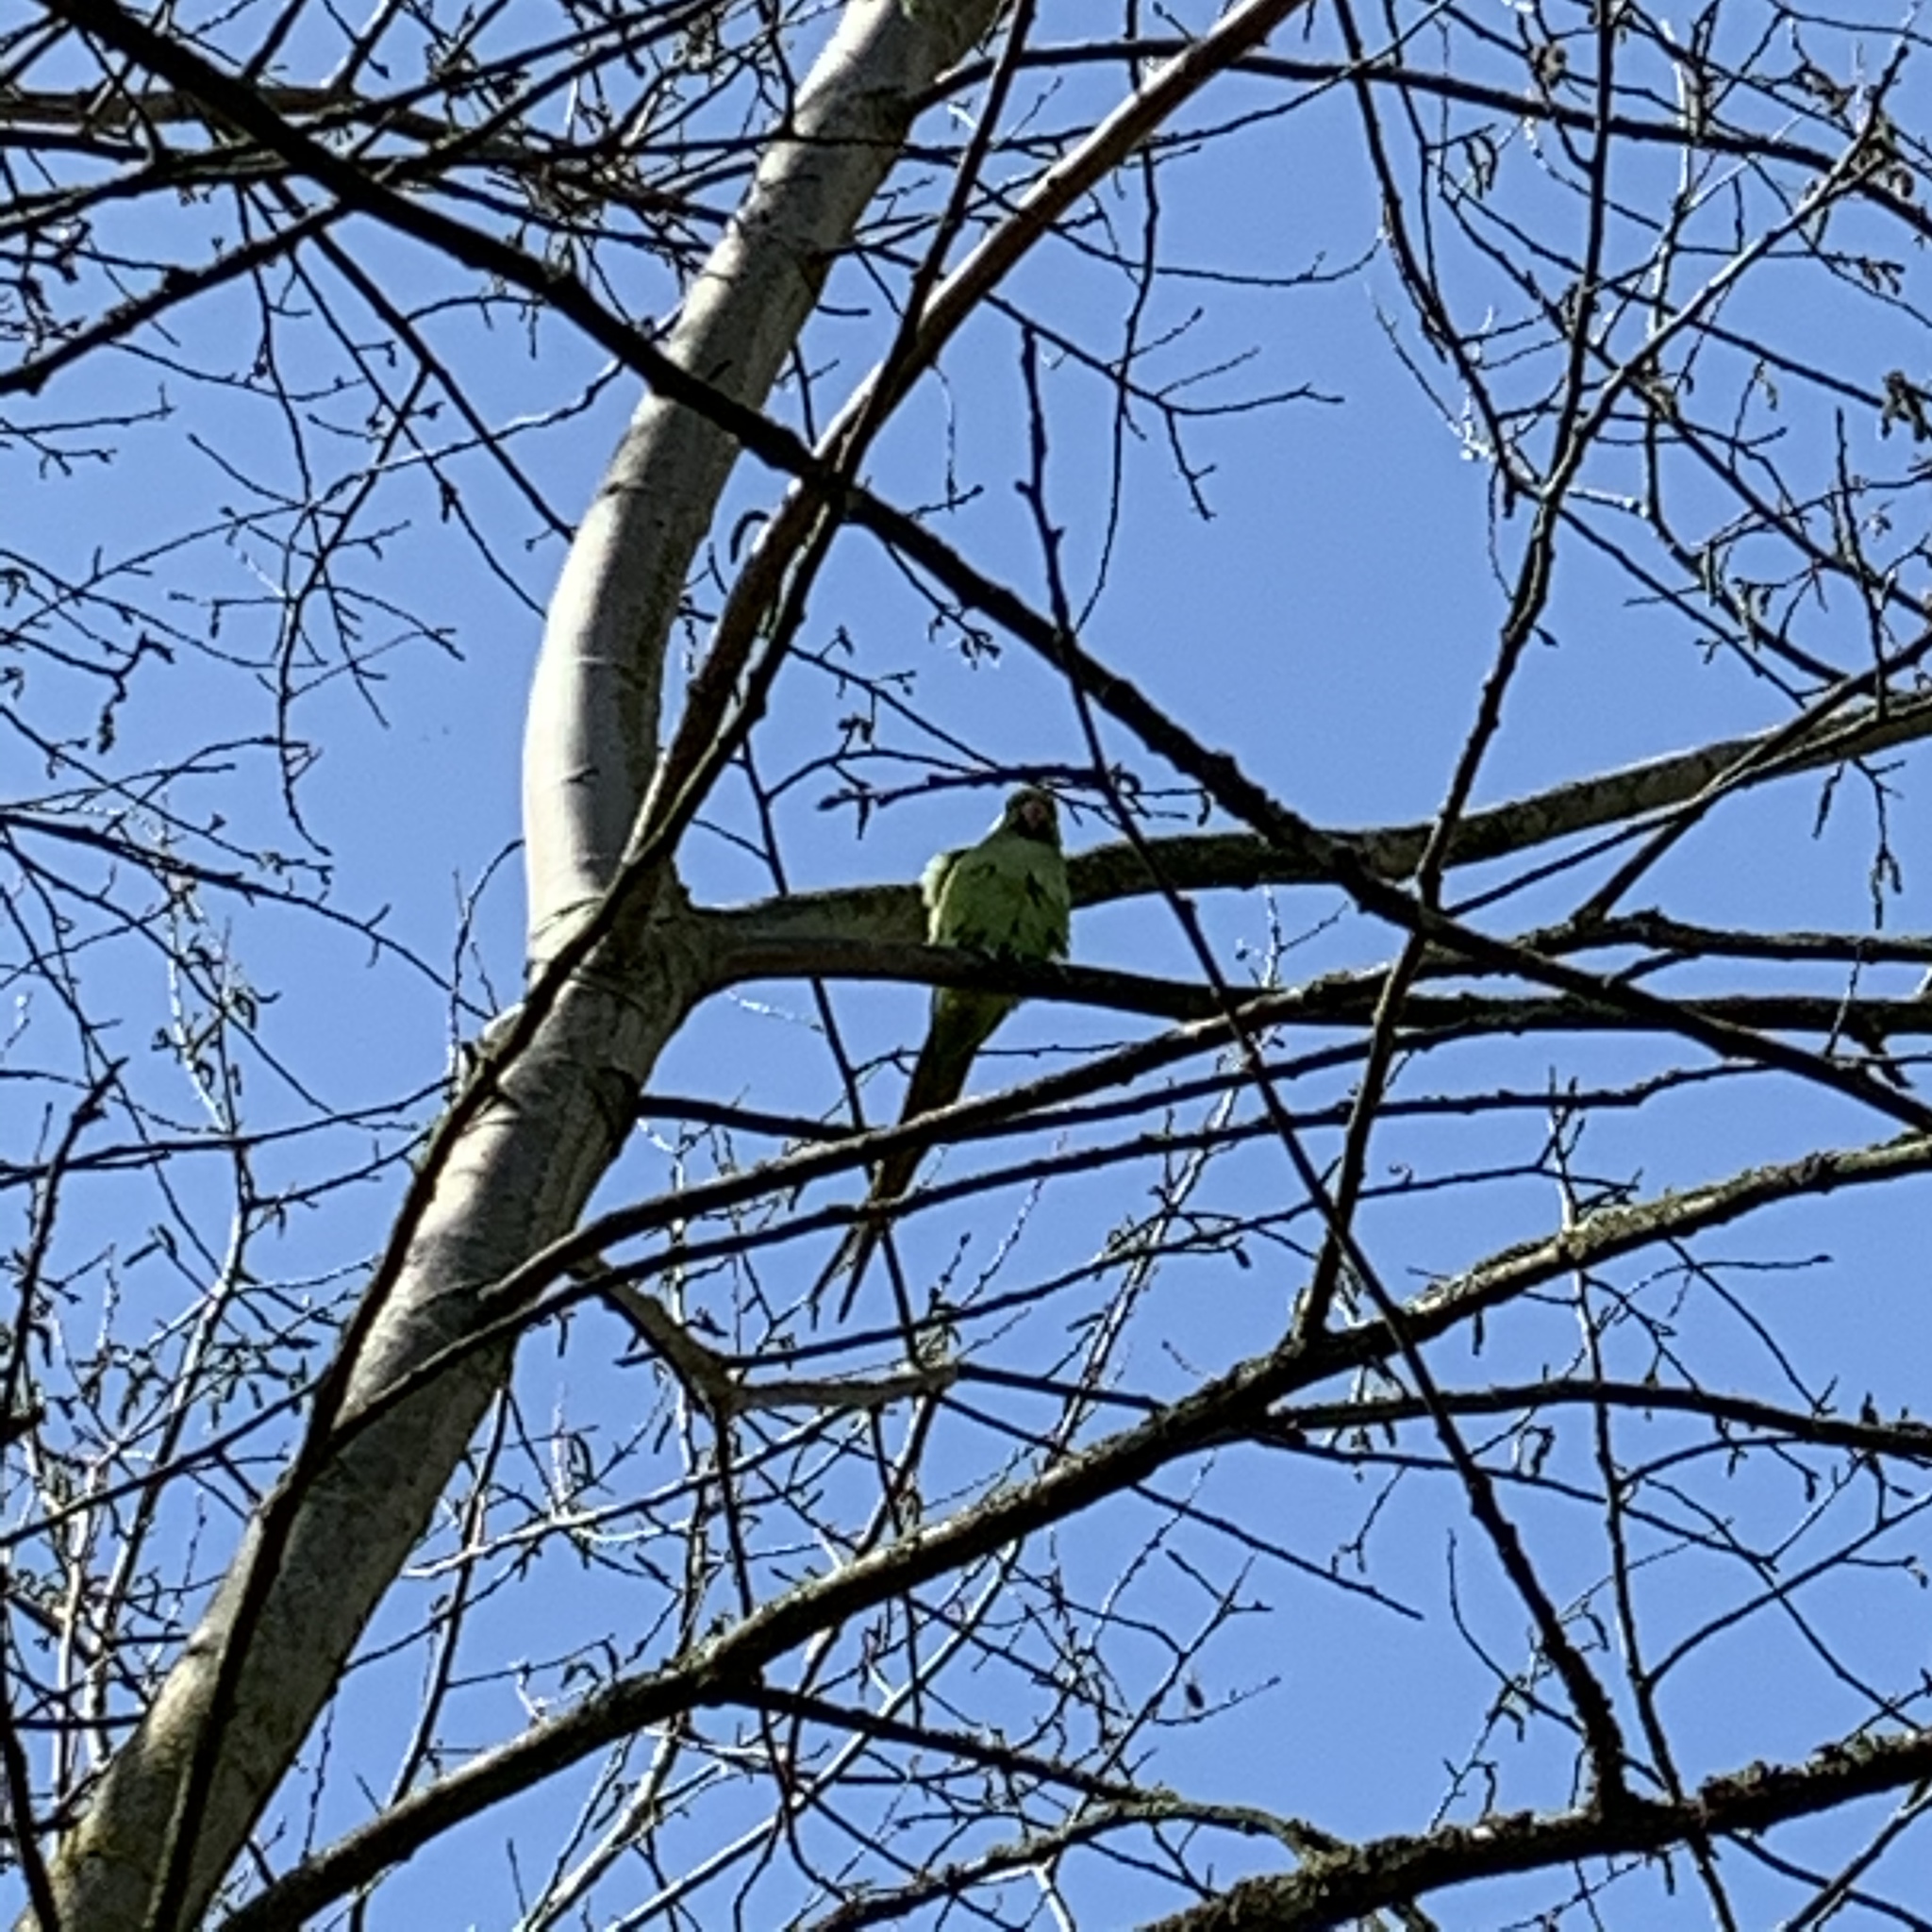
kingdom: Animalia
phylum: Chordata
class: Aves
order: Psittaciformes
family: Psittacidae
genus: Psittacula
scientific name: Psittacula krameri
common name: Rose-ringed parakeet
